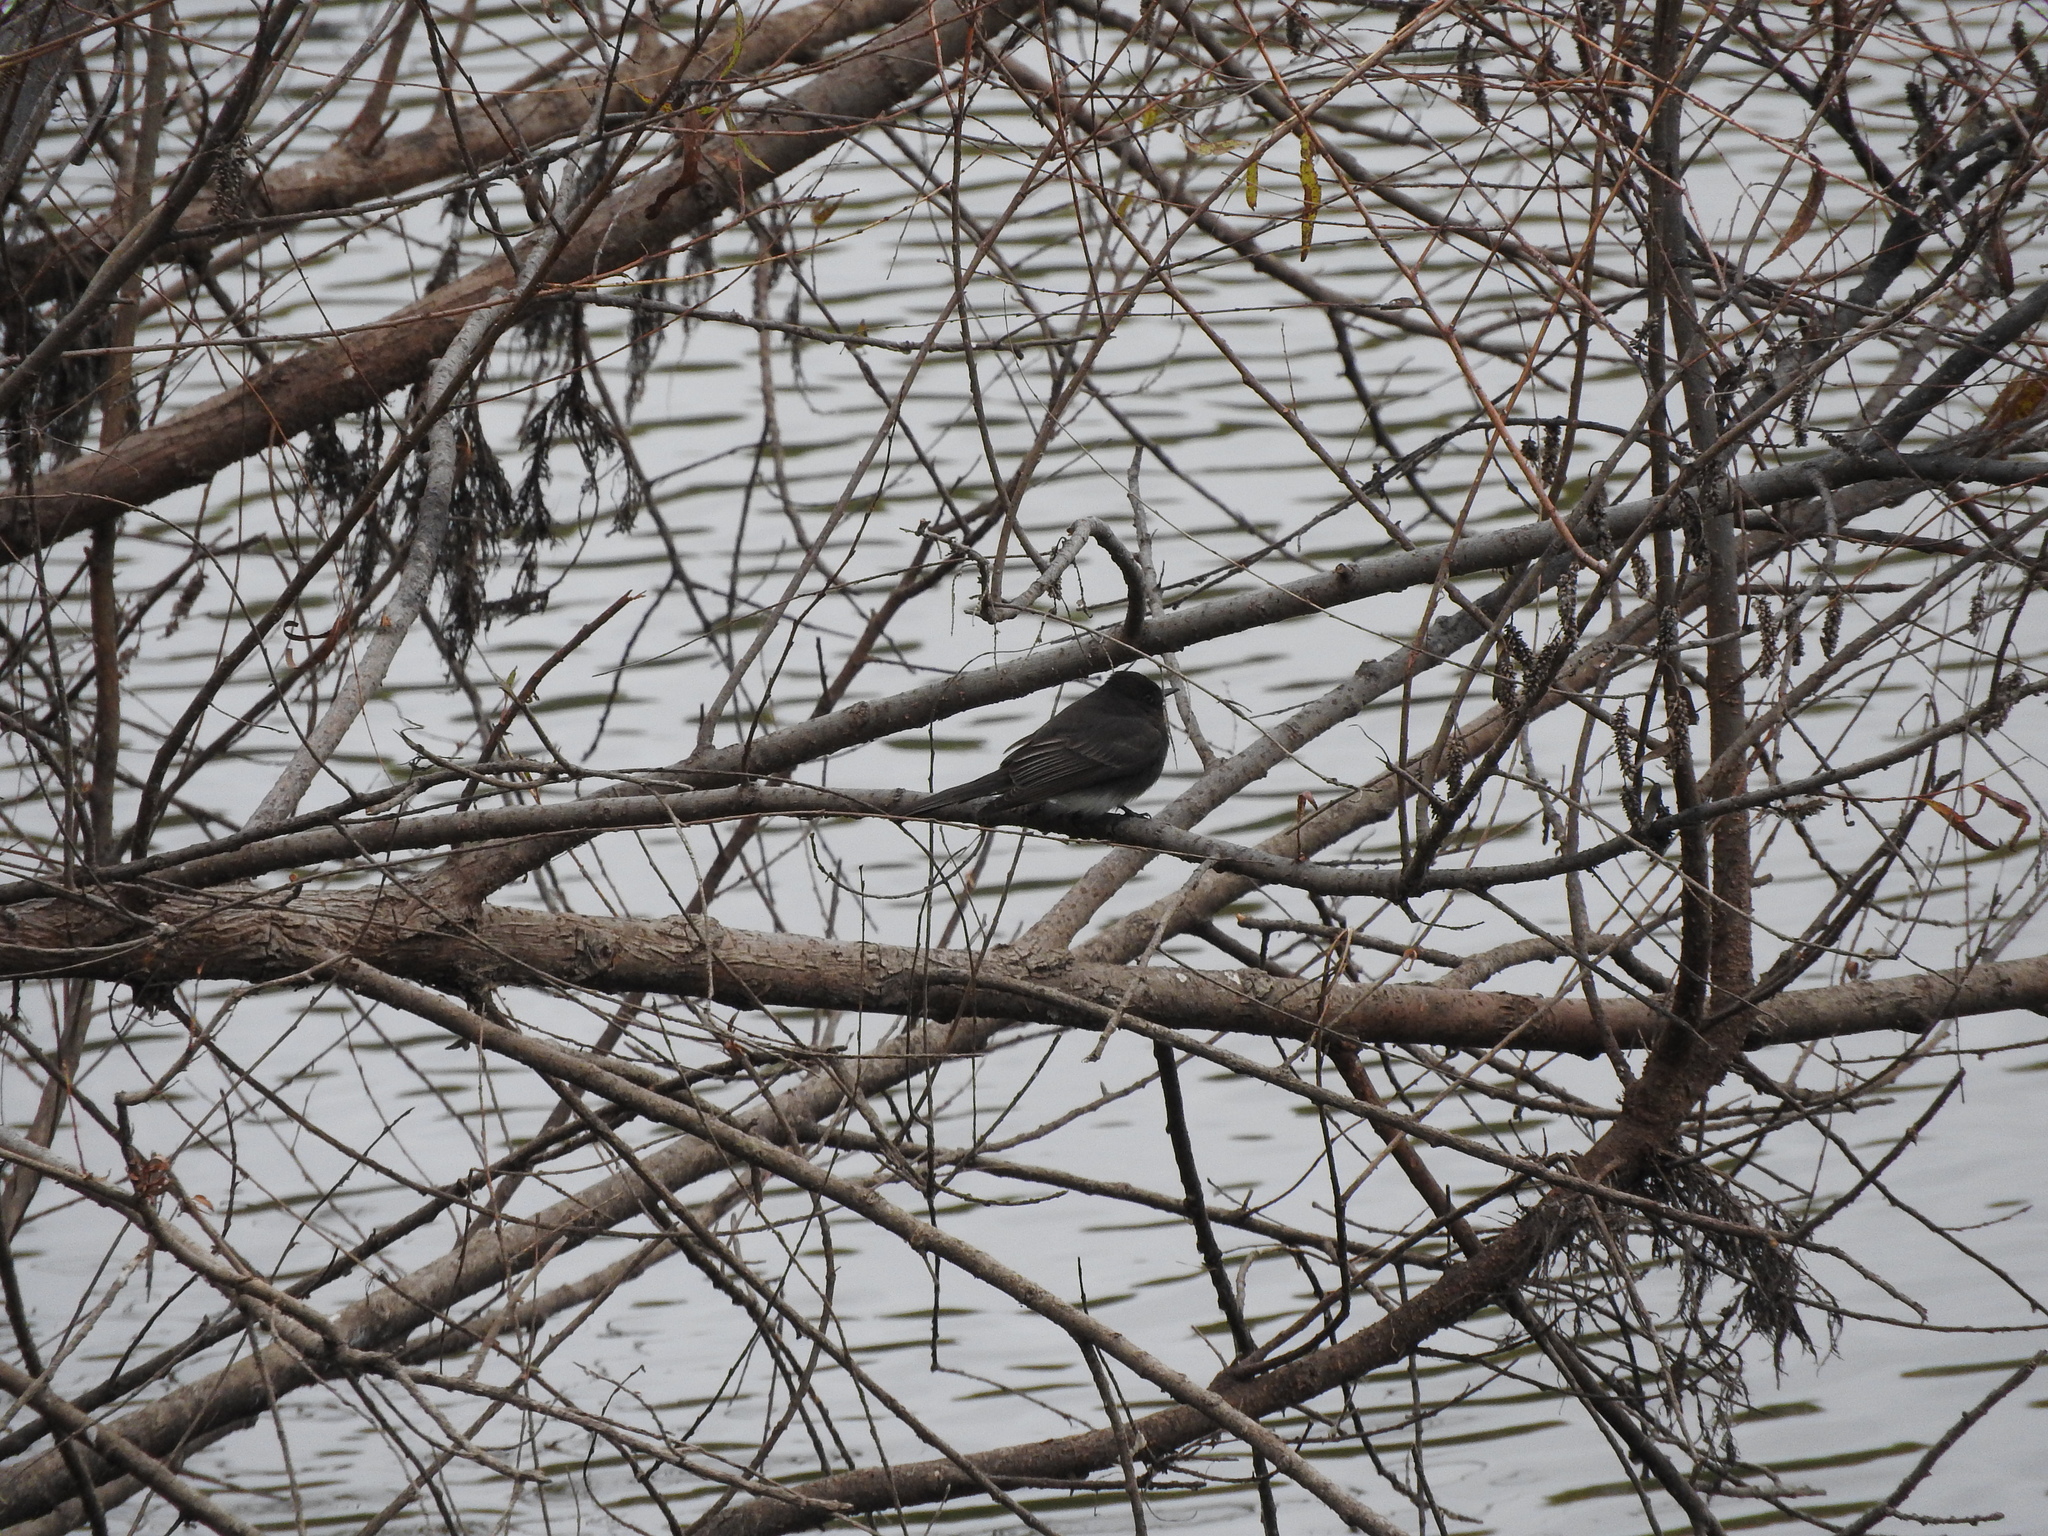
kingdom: Animalia
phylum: Chordata
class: Aves
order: Passeriformes
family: Tyrannidae
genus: Sayornis
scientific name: Sayornis nigricans
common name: Black phoebe
